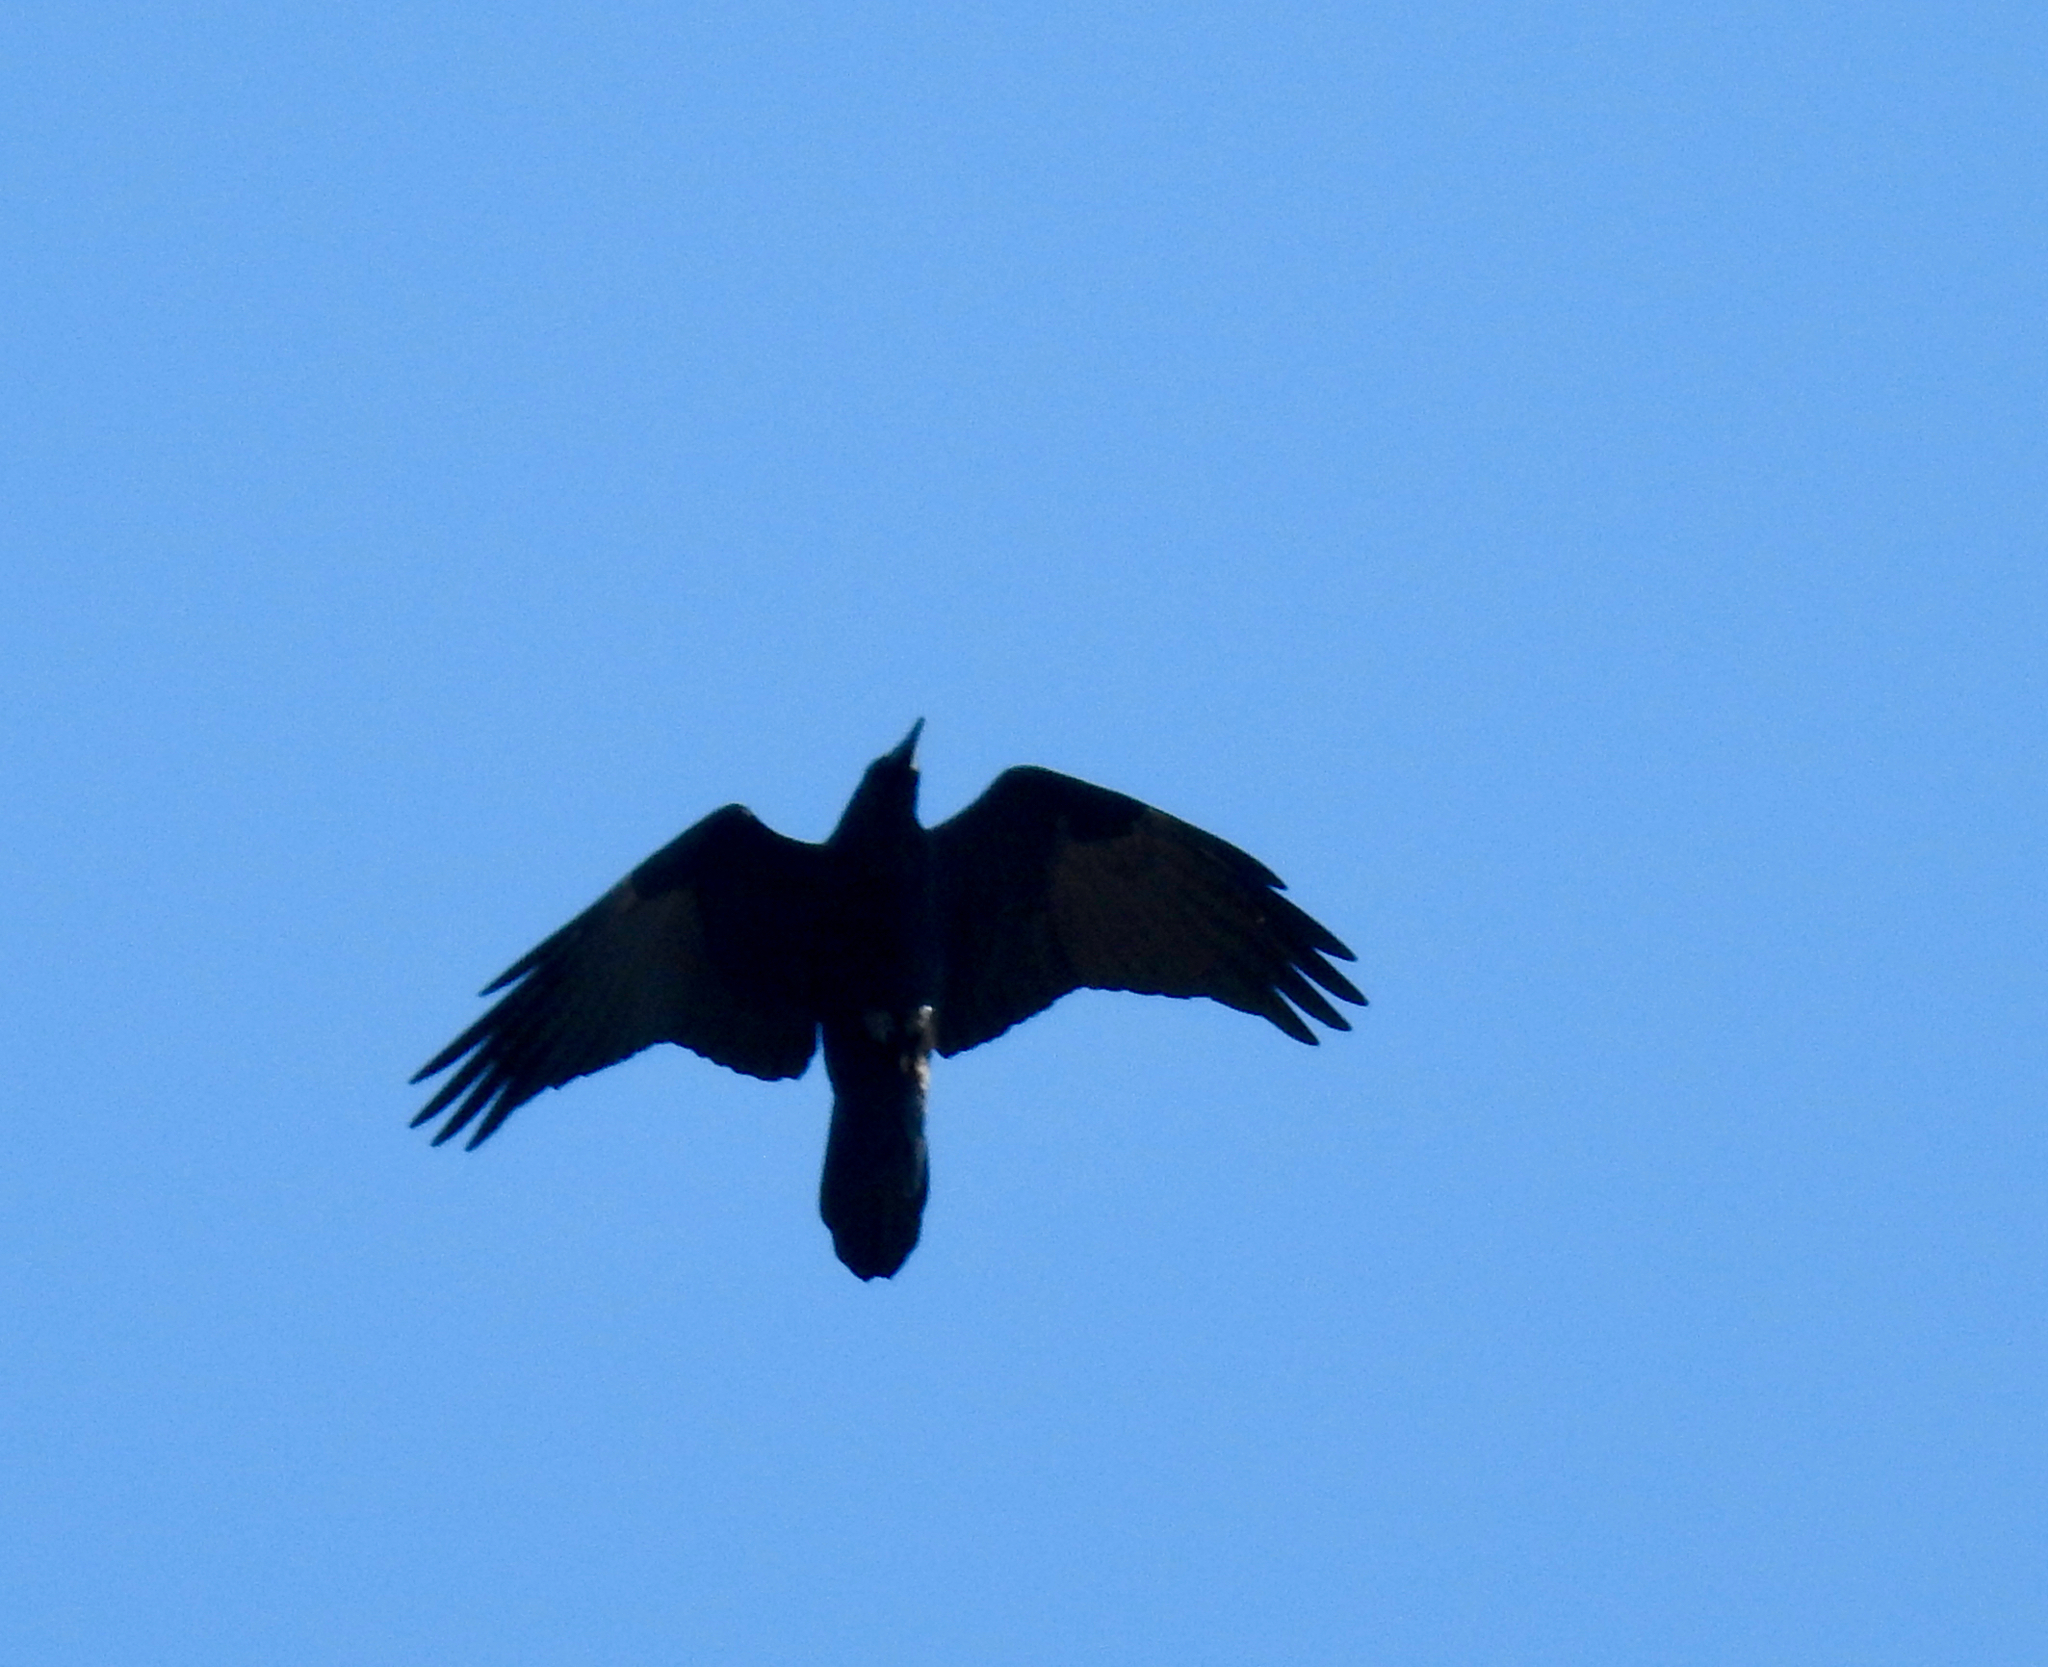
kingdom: Animalia
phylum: Chordata
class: Aves
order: Passeriformes
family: Corvidae
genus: Corvus
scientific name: Corvus corax
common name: Common raven
